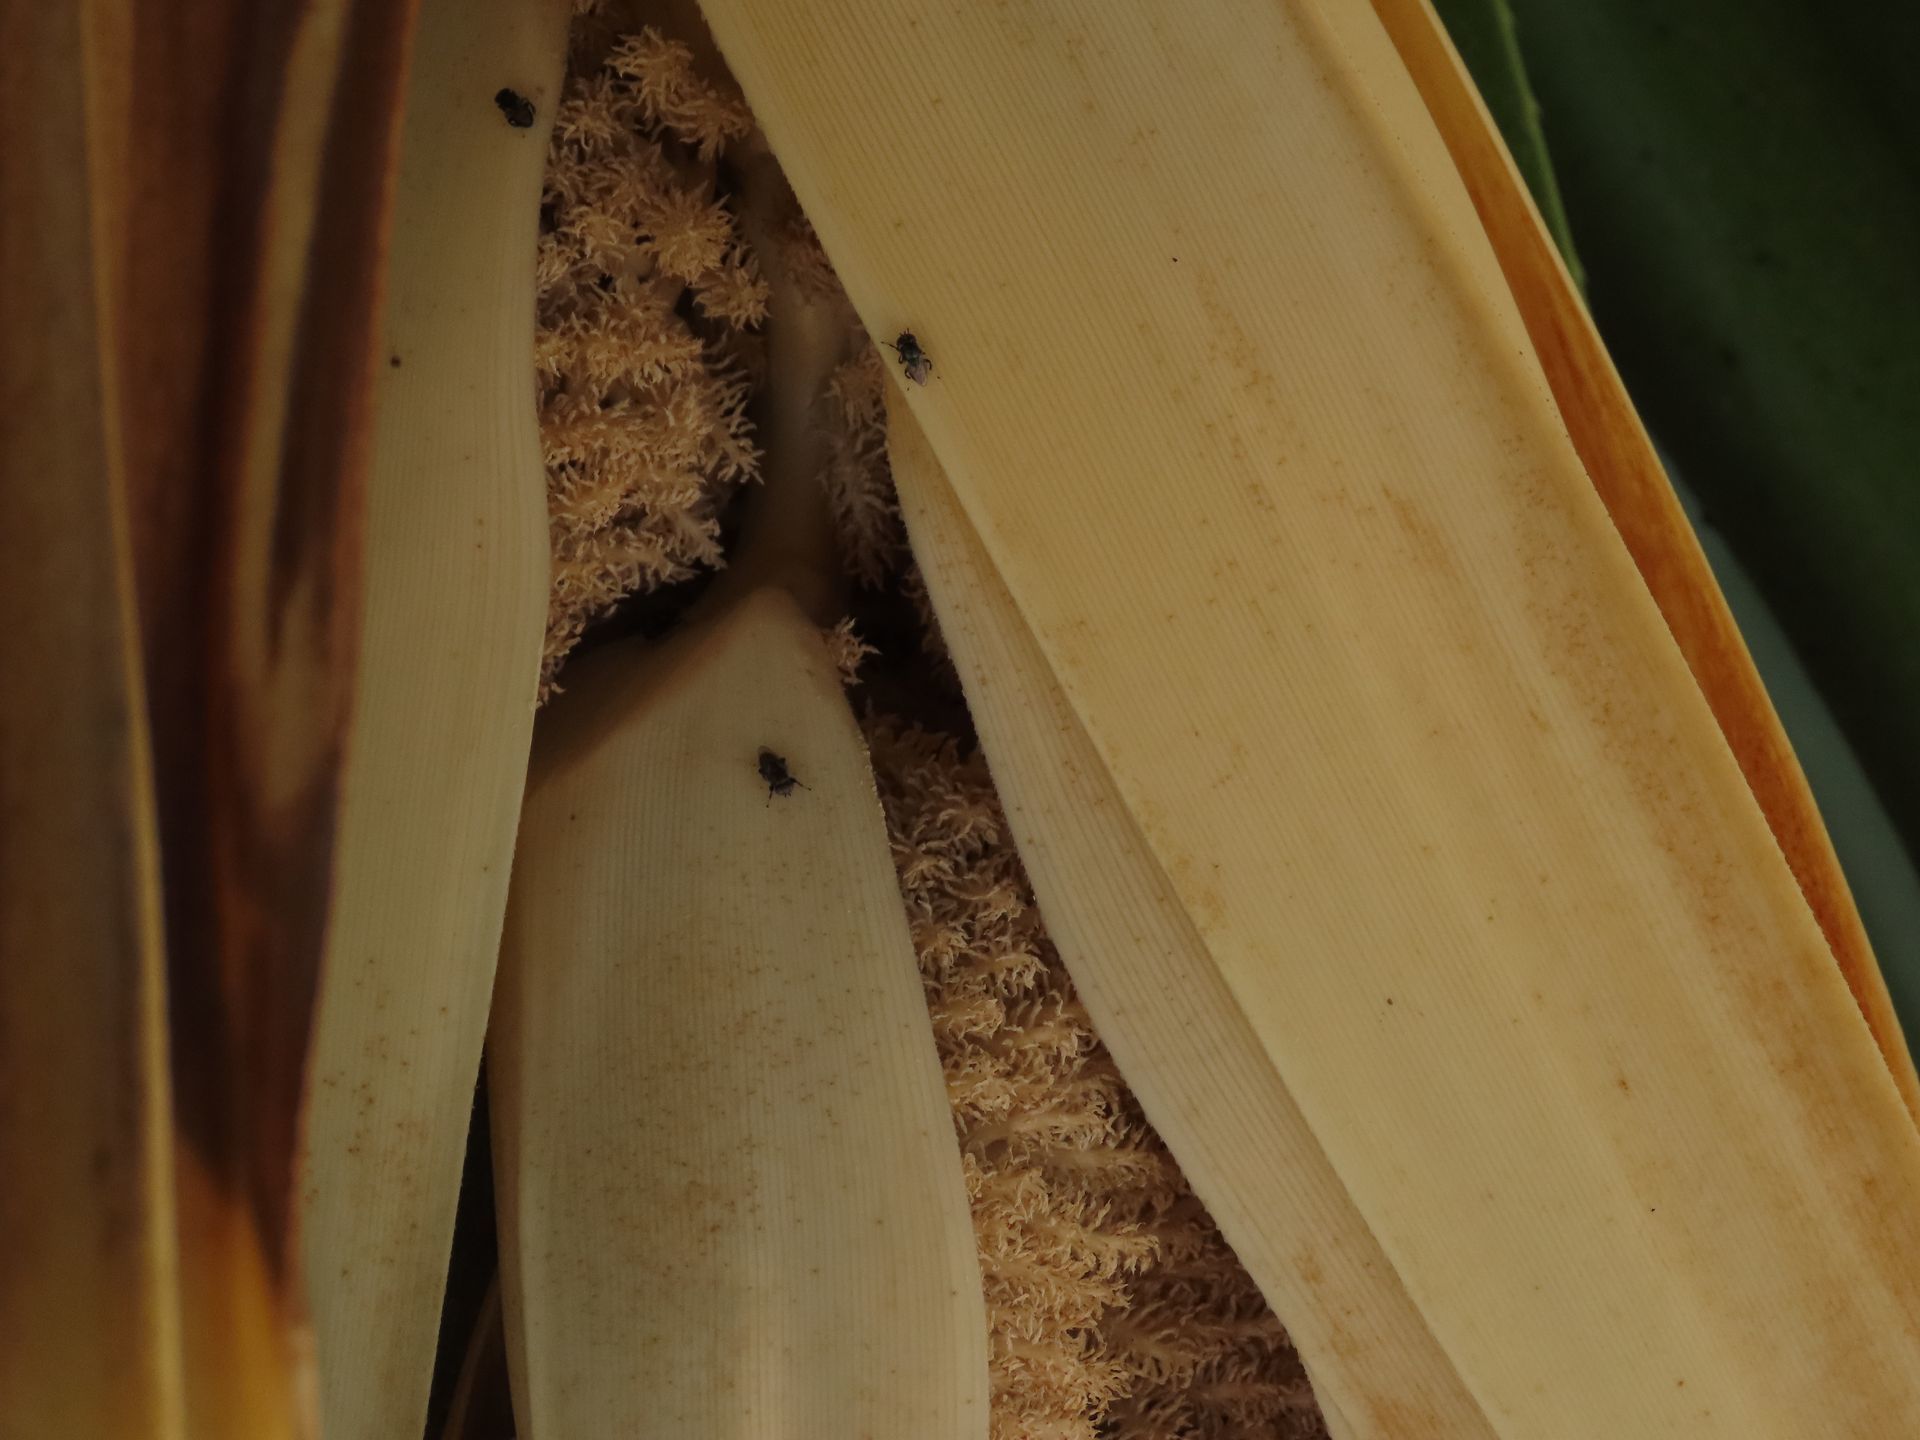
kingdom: Plantae
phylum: Tracheophyta
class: Liliopsida
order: Pandanales
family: Pandanaceae
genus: Pandanus
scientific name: Pandanus tectorius
